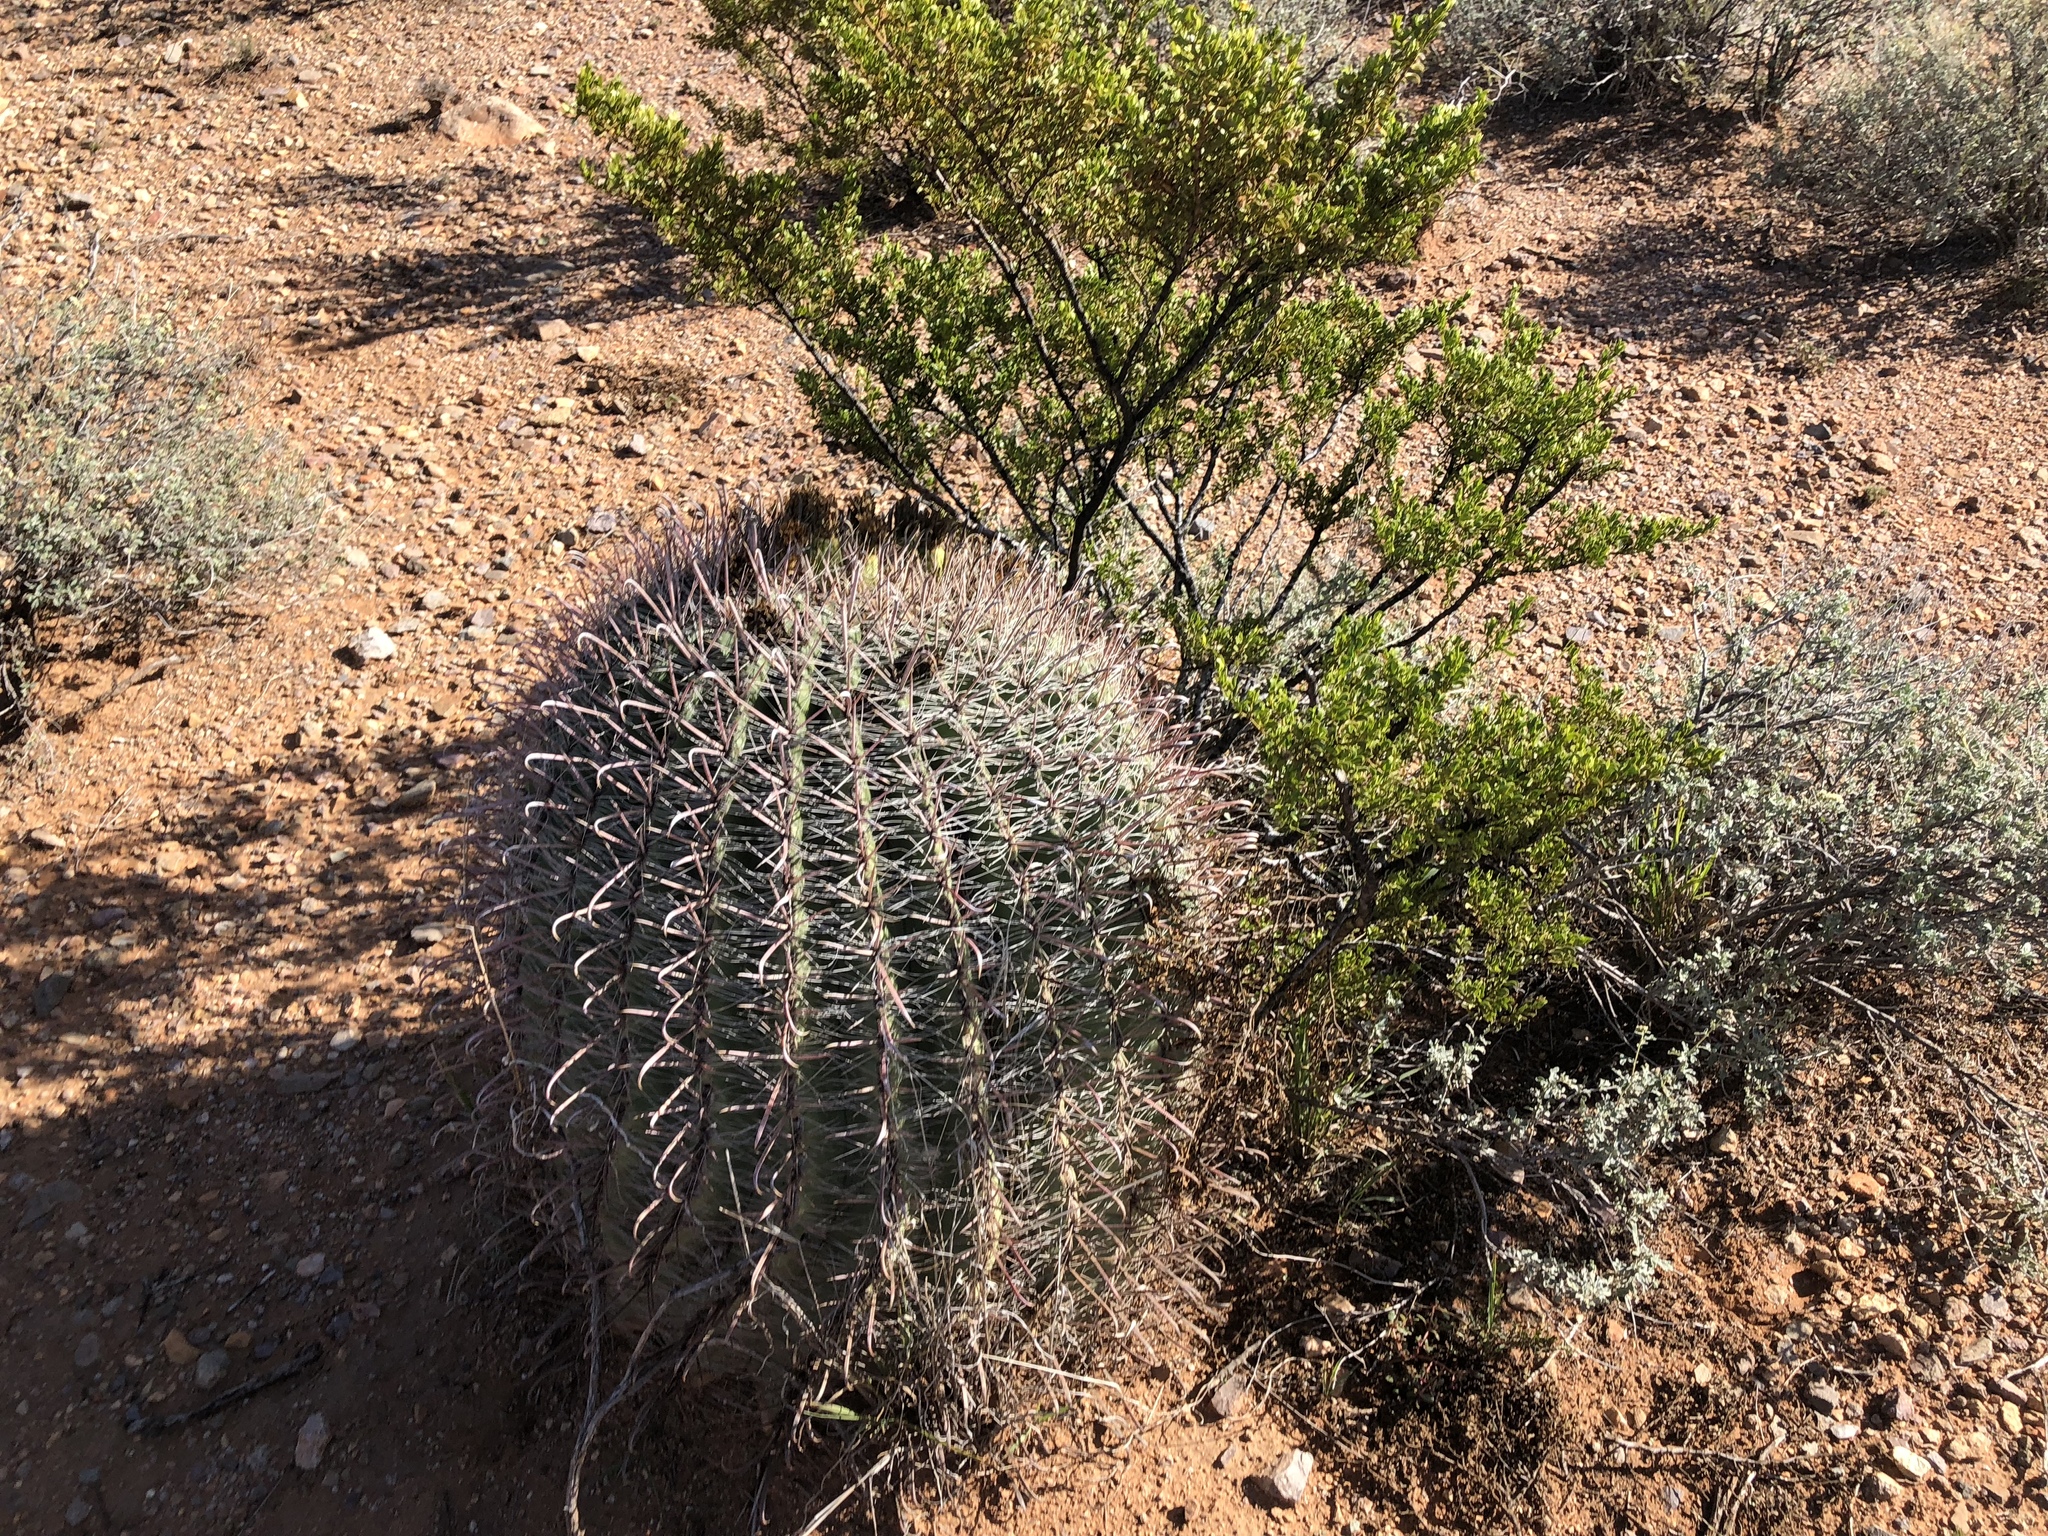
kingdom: Plantae
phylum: Tracheophyta
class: Magnoliopsida
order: Caryophyllales
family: Cactaceae
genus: Ferocactus
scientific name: Ferocactus wislizeni
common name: Candy barrel cactus
